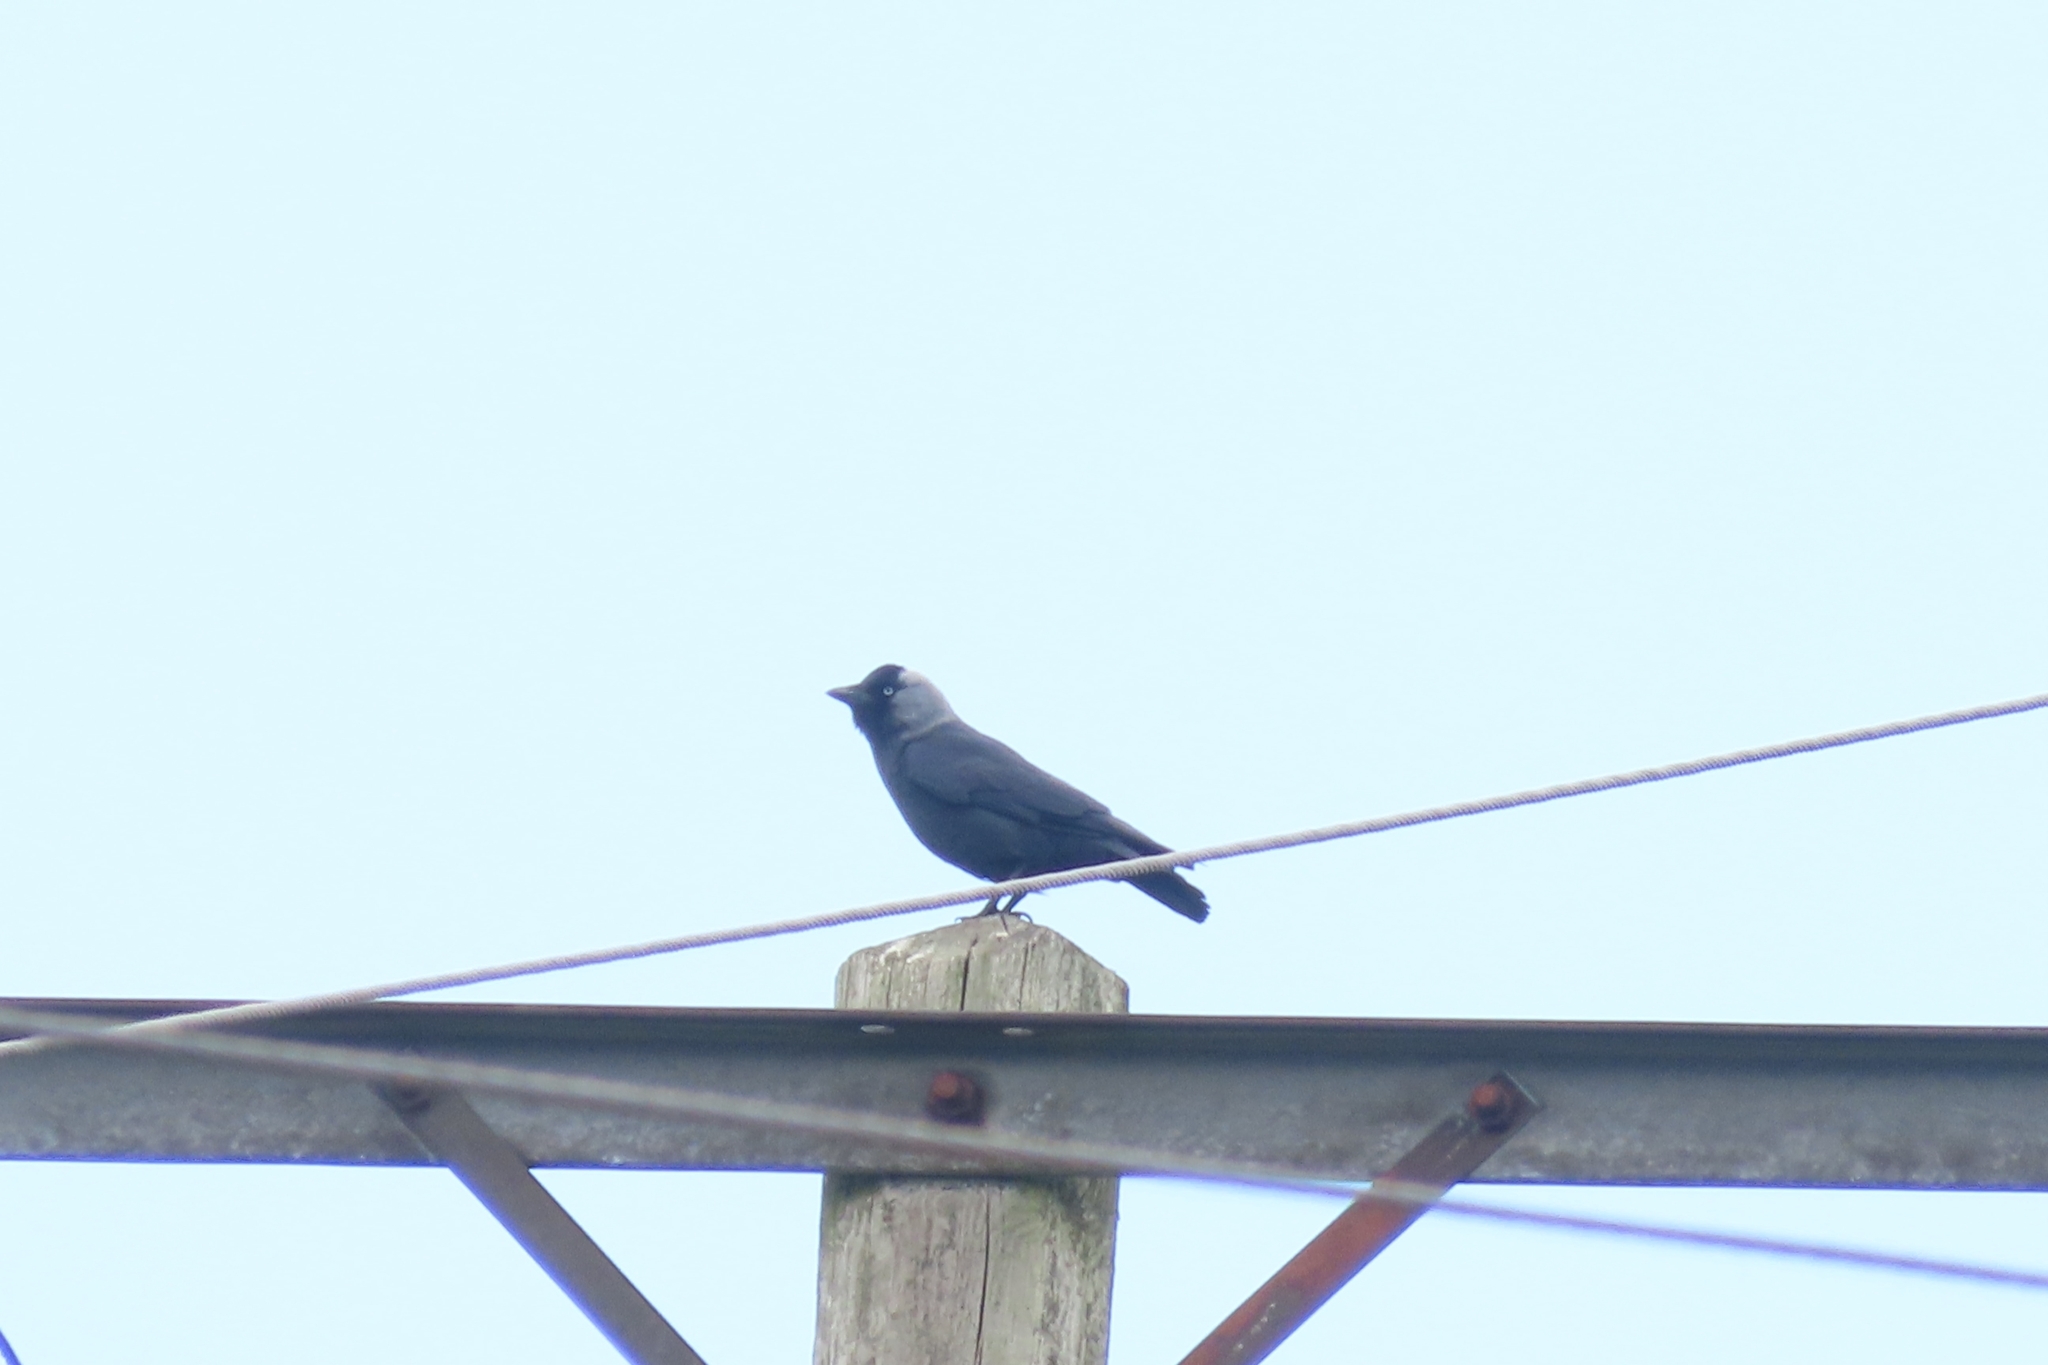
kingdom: Animalia
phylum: Chordata
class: Aves
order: Passeriformes
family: Corvidae
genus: Coloeus
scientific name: Coloeus monedula
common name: Western jackdaw
